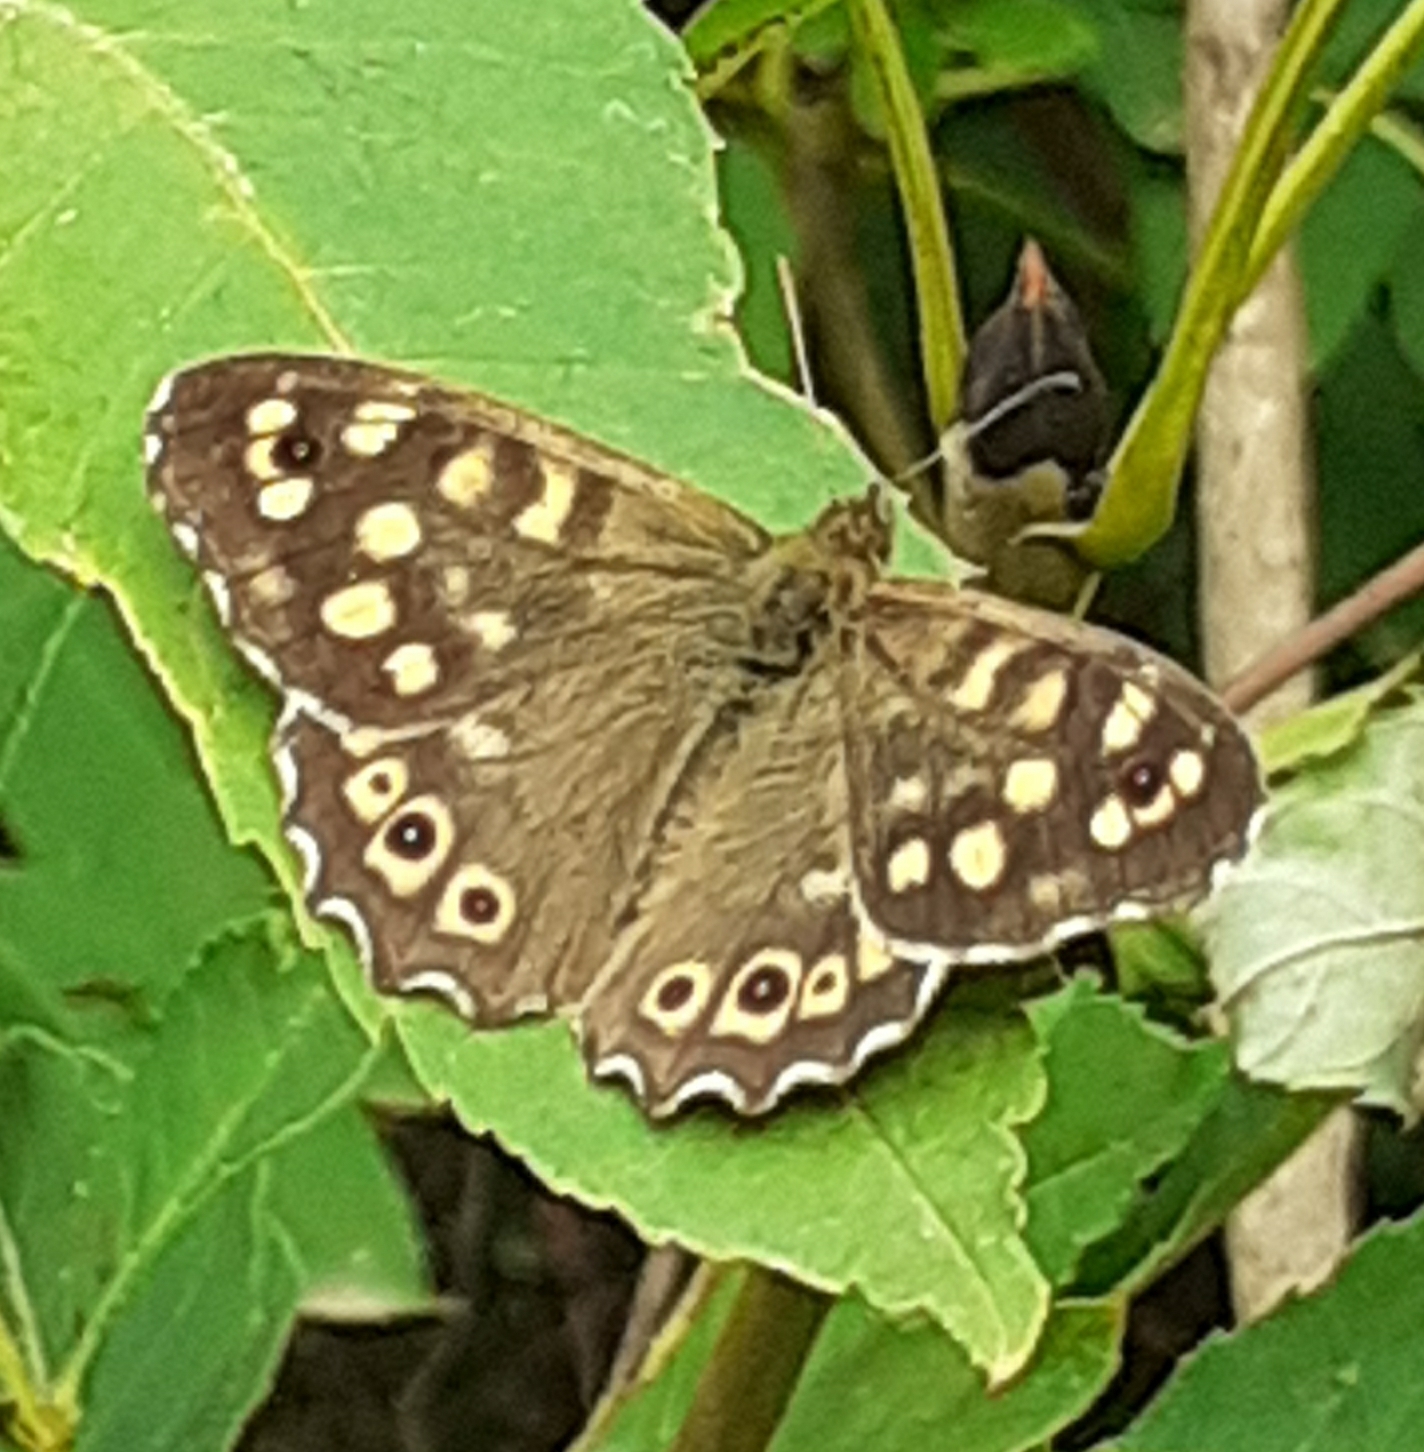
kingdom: Animalia
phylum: Arthropoda
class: Insecta
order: Lepidoptera
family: Nymphalidae
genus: Pararge
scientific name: Pararge aegeria
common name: Speckled wood
